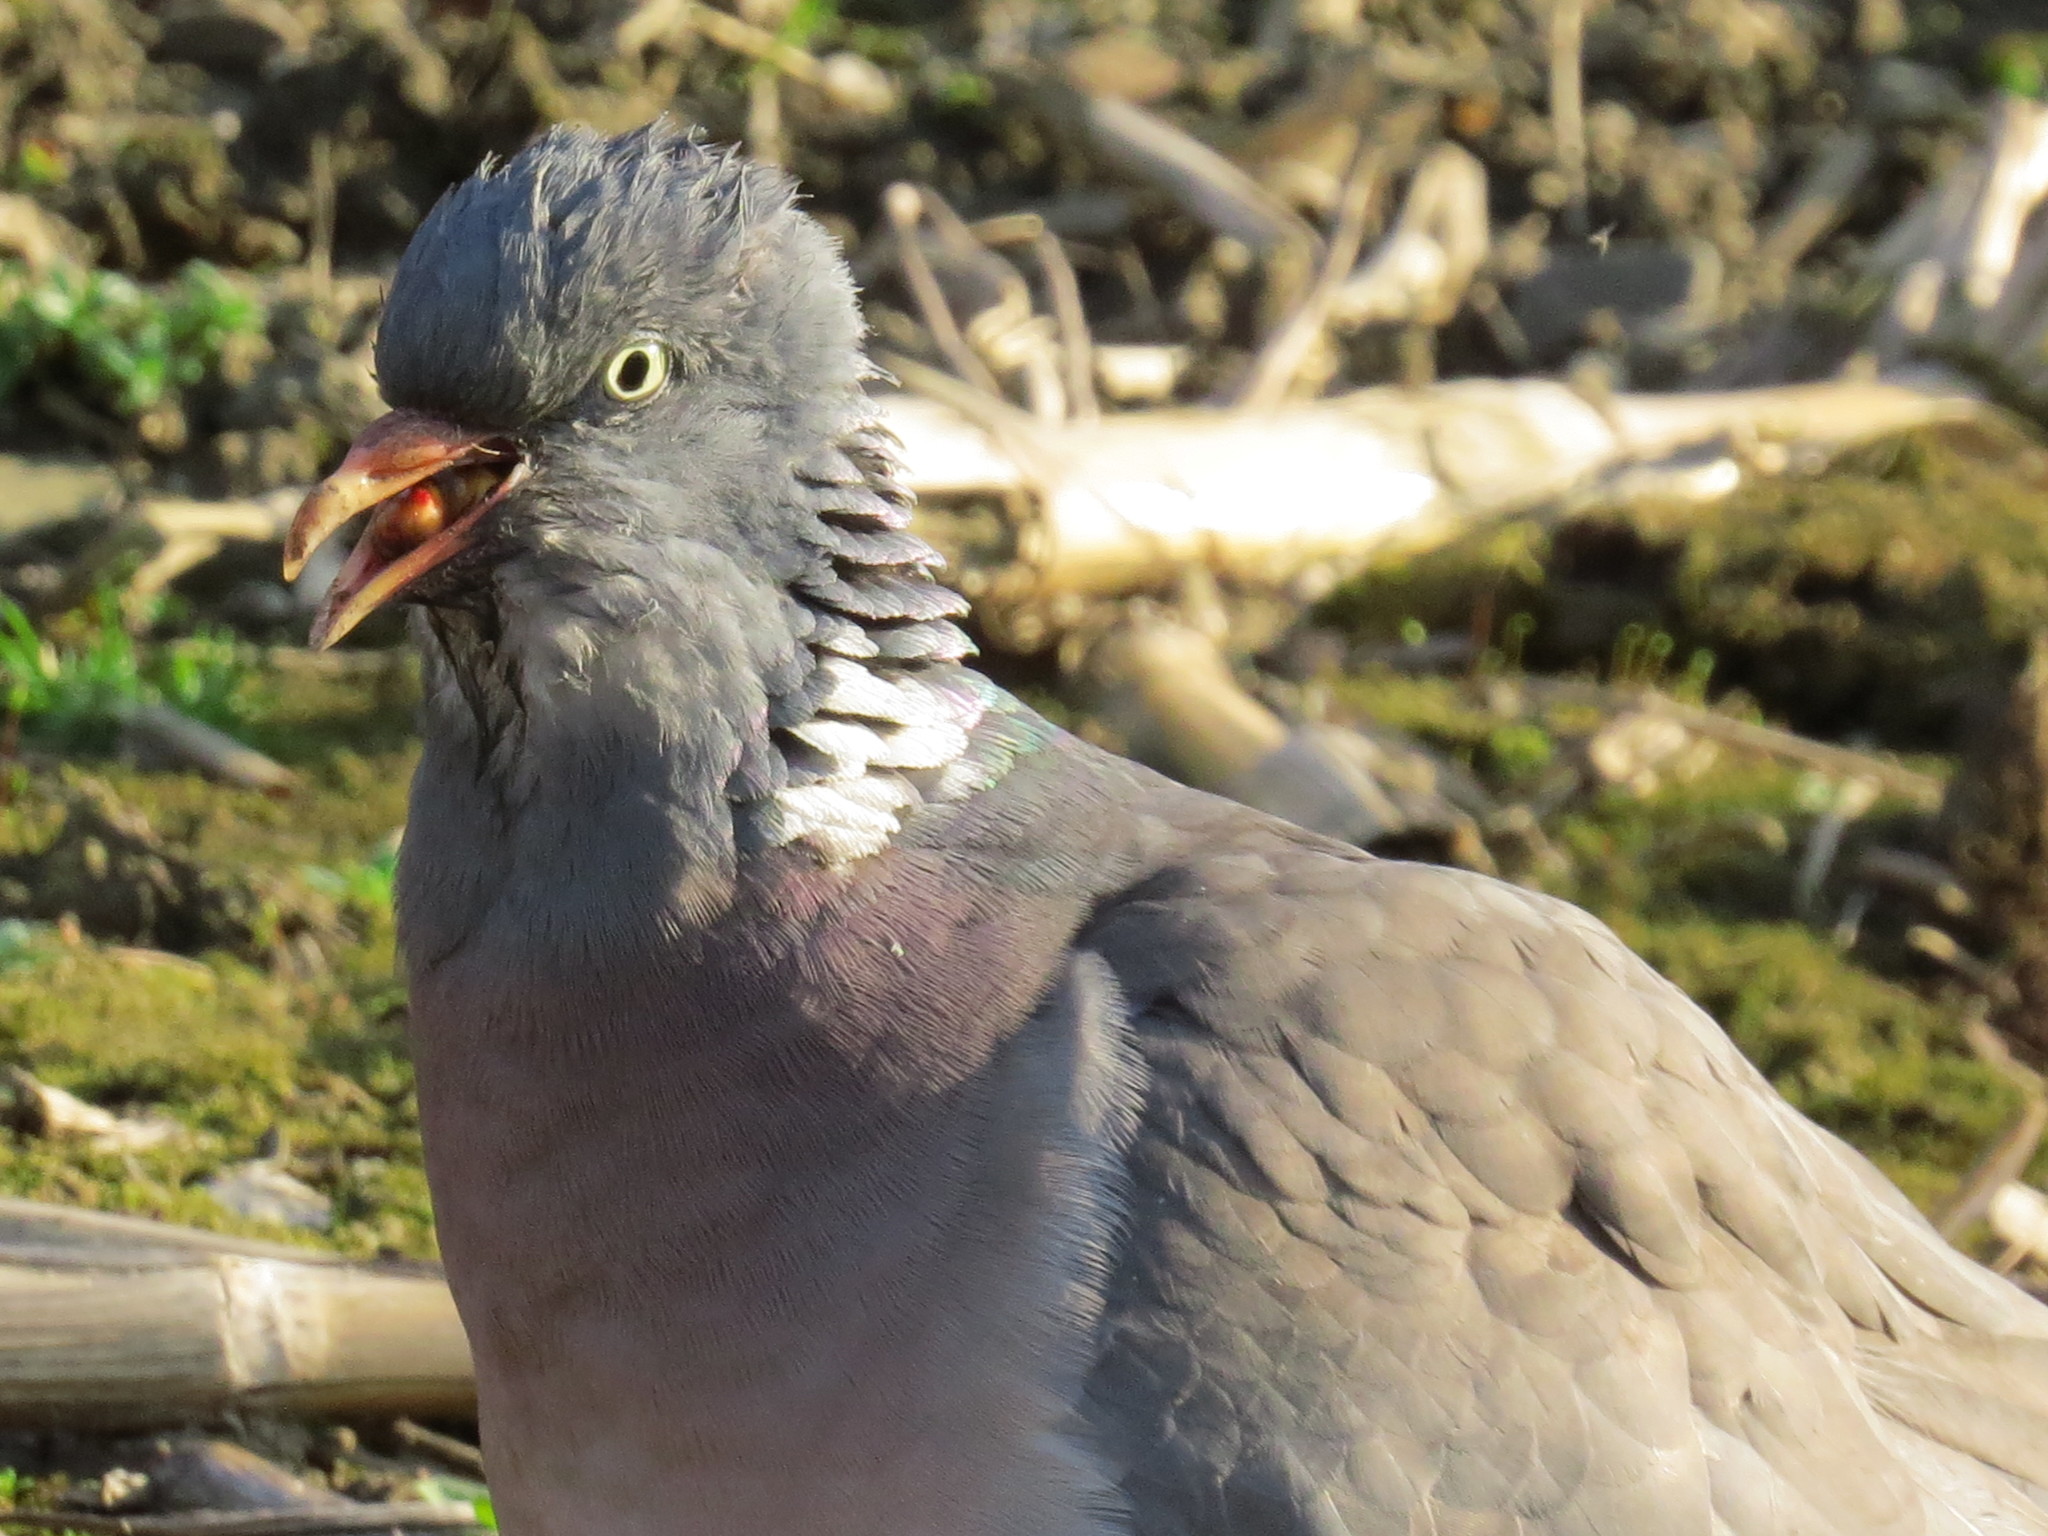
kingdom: Animalia
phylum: Chordata
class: Aves
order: Columbiformes
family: Columbidae
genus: Columba
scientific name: Columba palumbus
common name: Common wood pigeon
